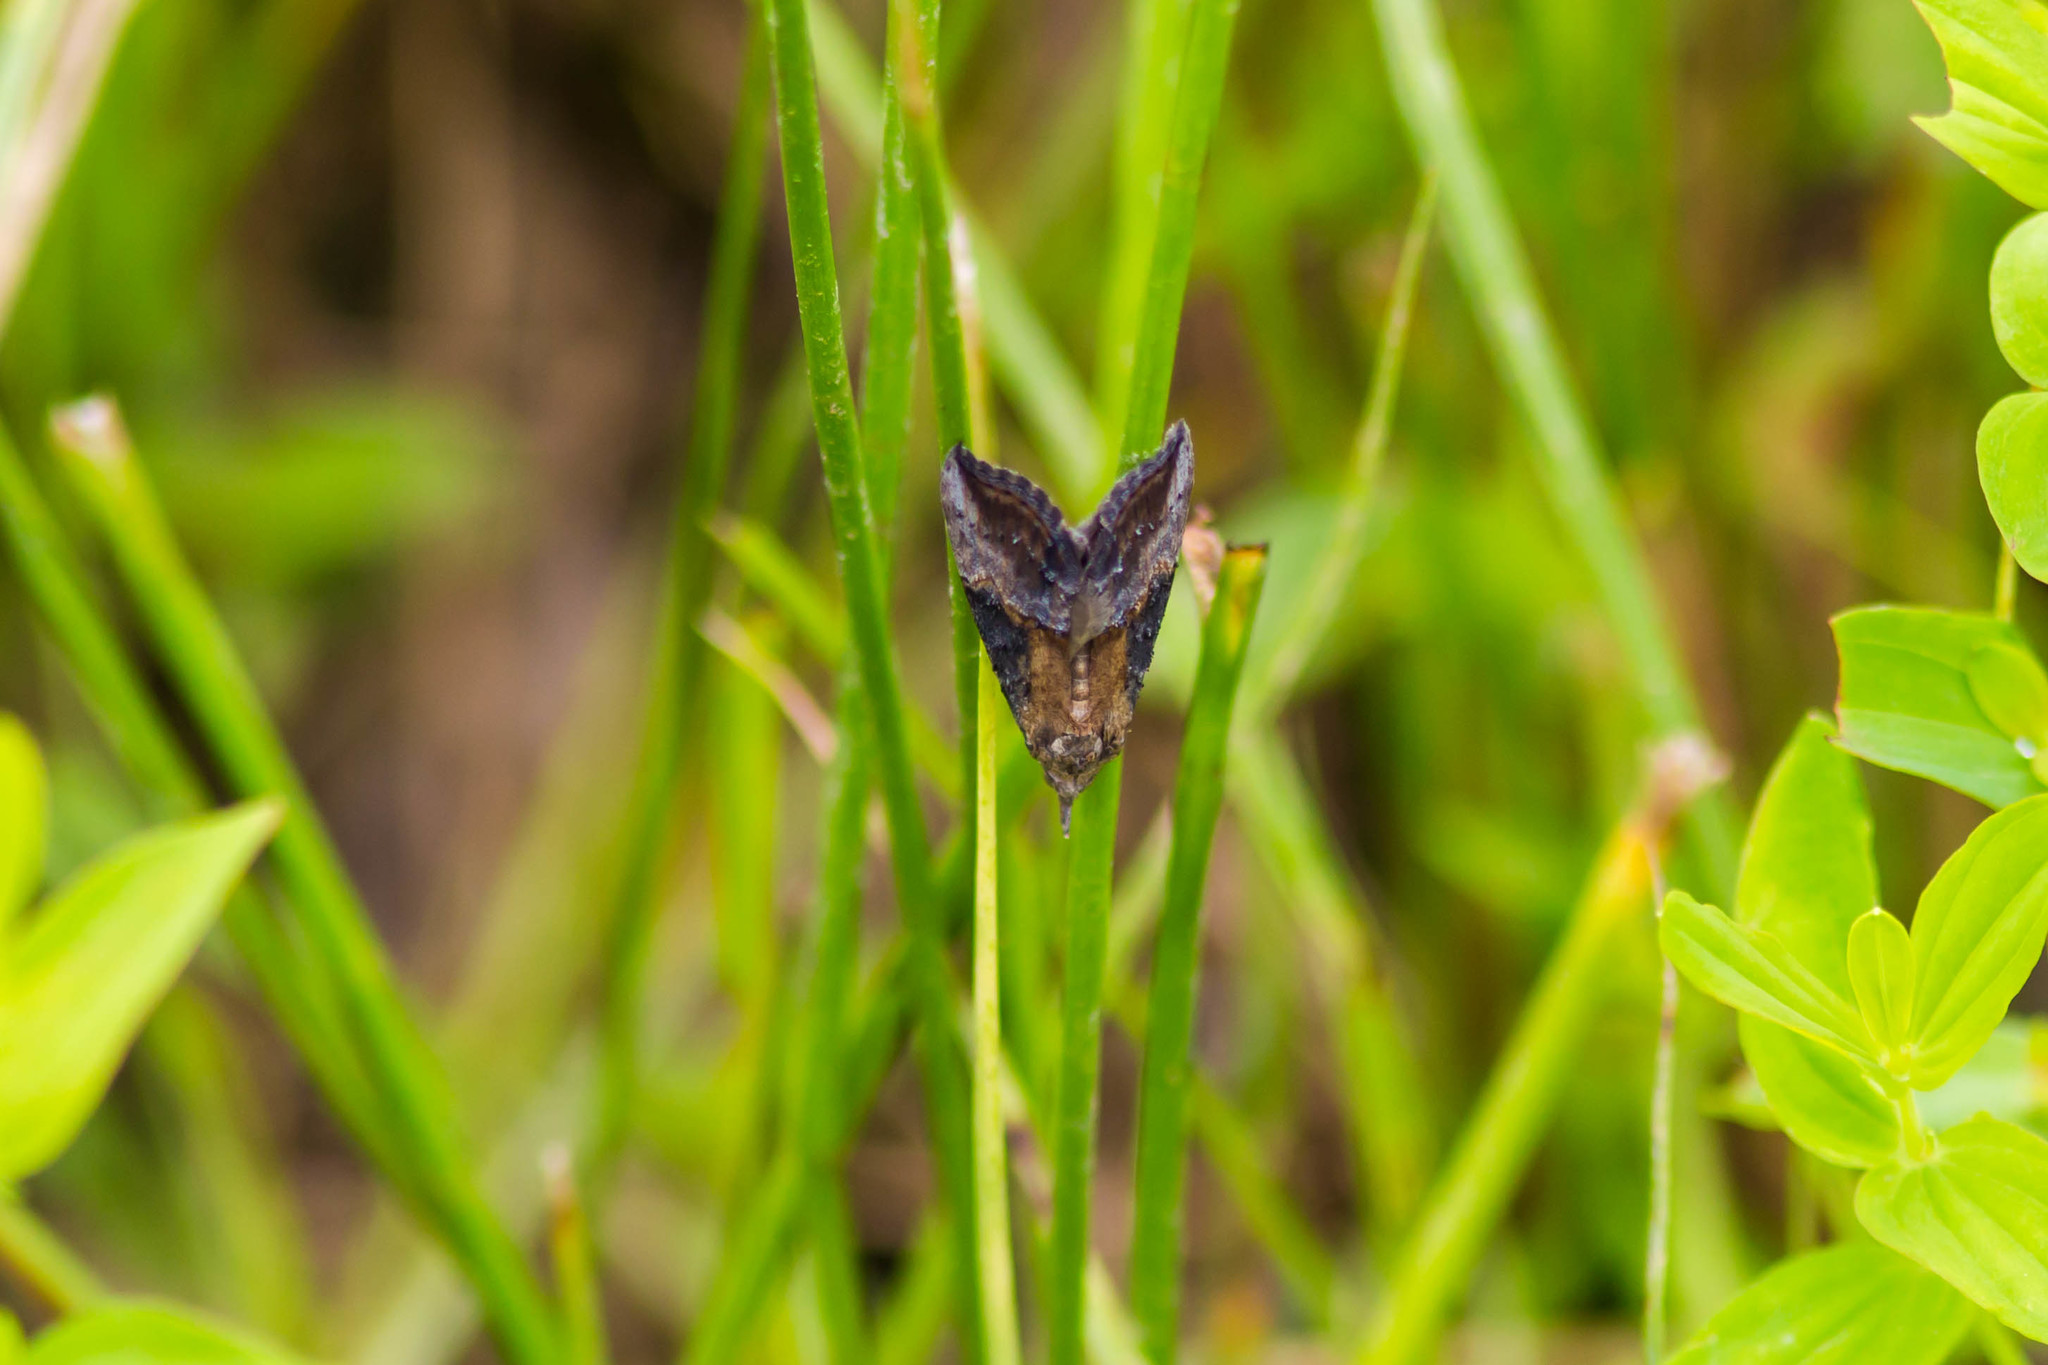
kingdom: Animalia
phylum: Arthropoda
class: Insecta
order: Lepidoptera
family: Erebidae
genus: Hypena
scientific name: Hypena scabra
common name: Green cloverworm
